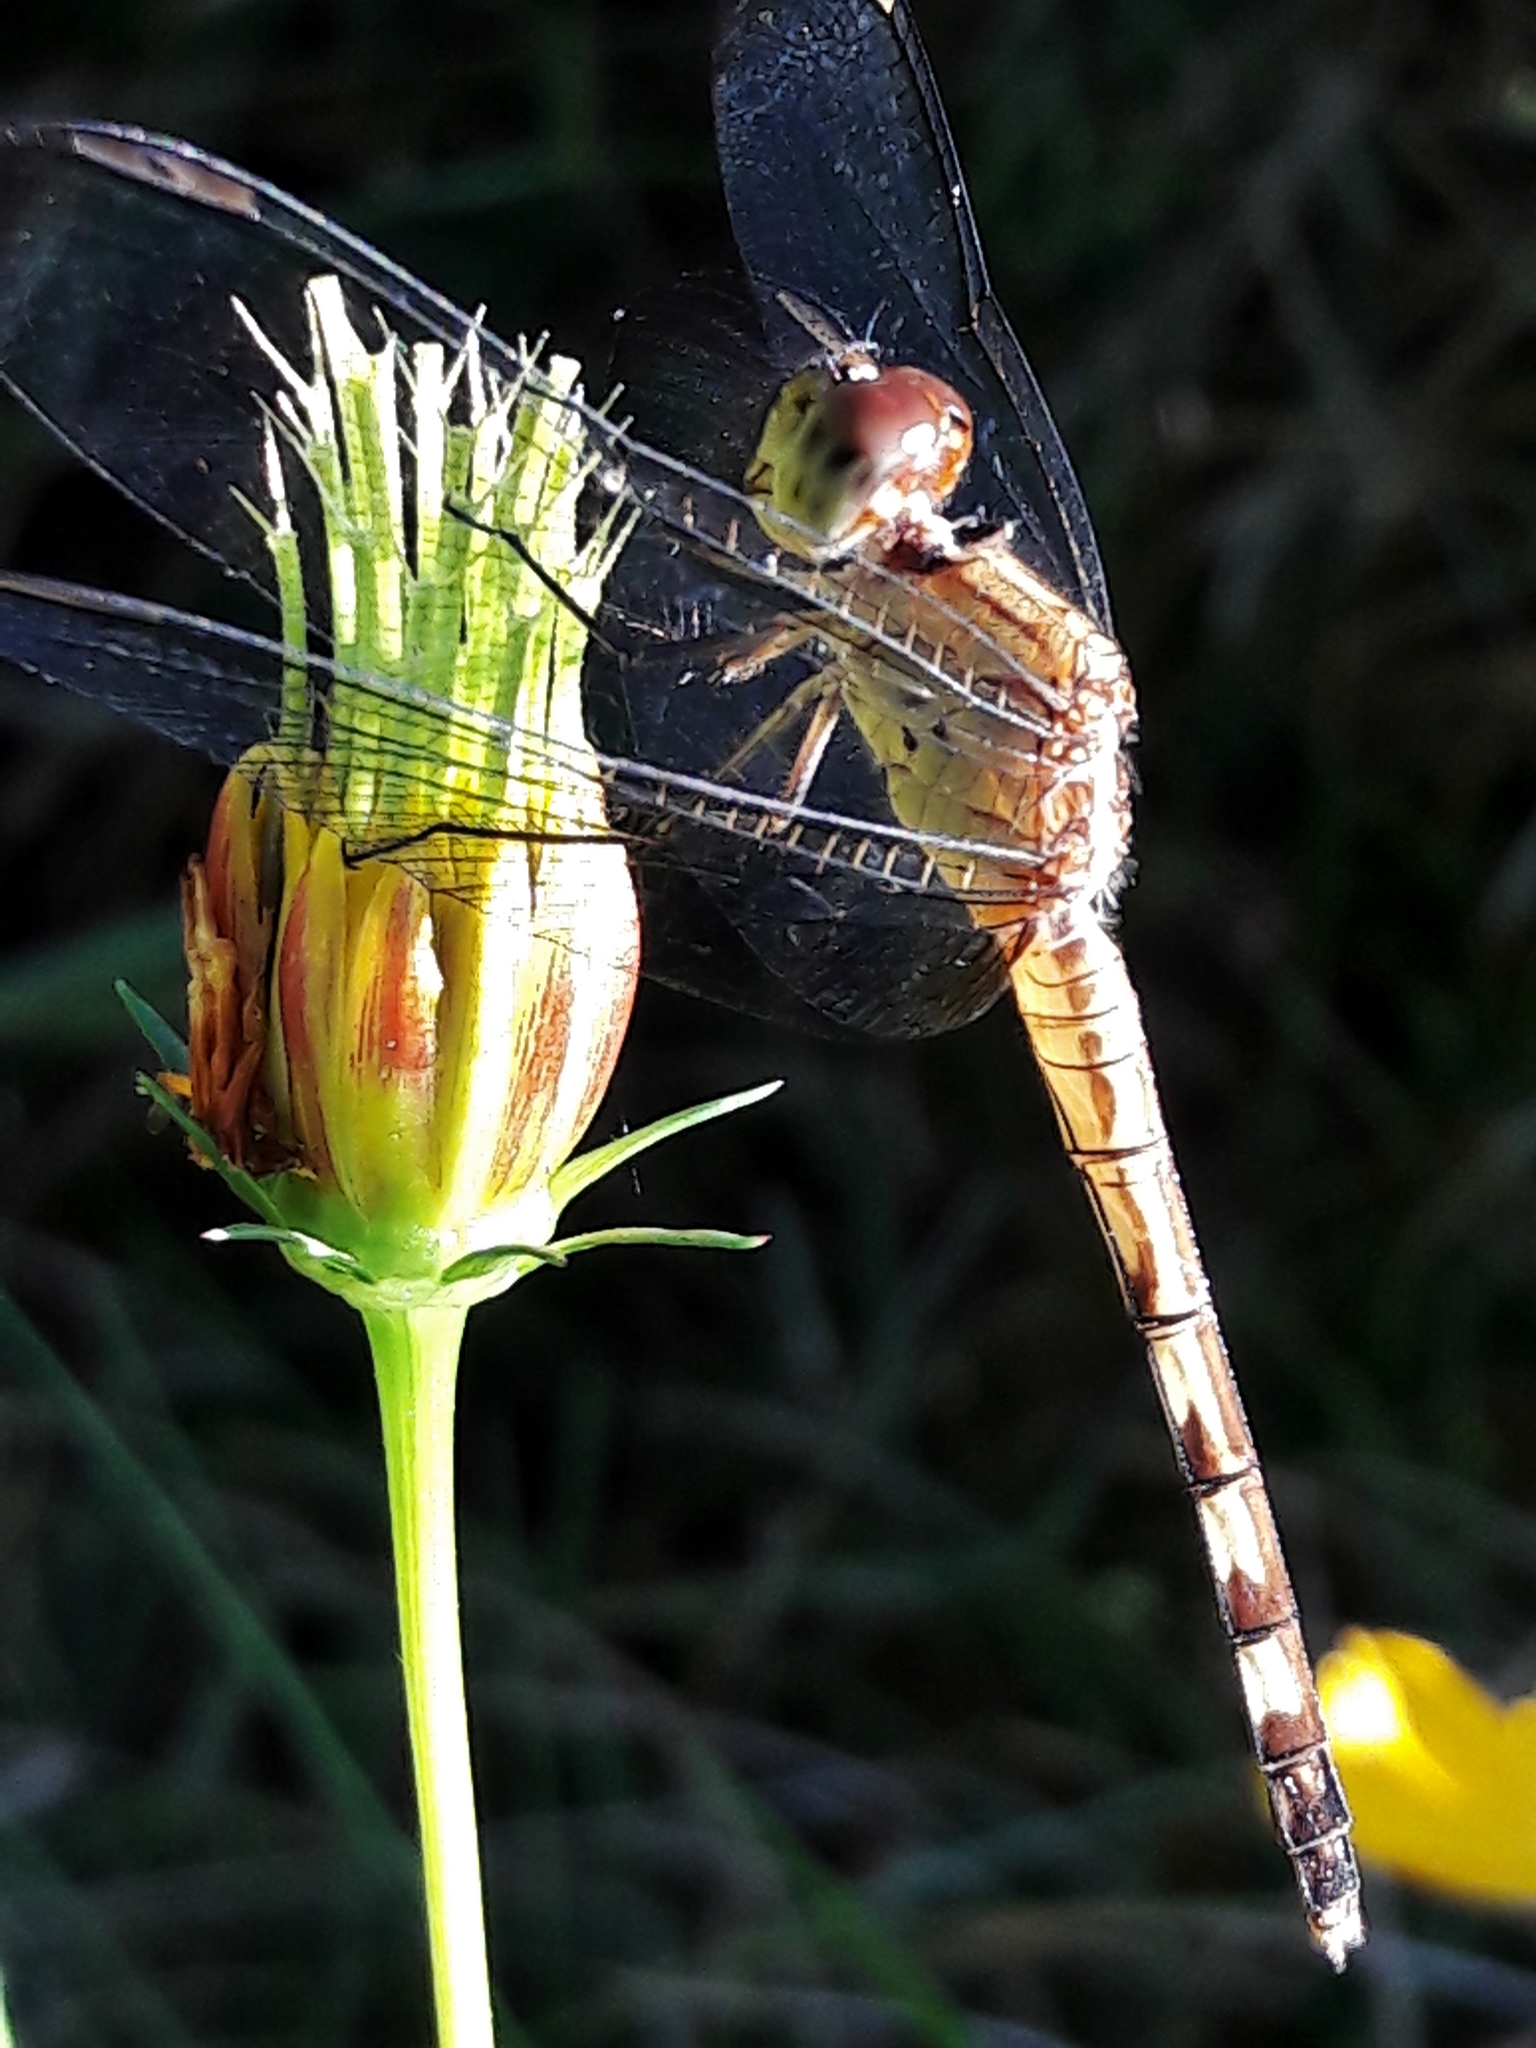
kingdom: Animalia
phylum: Arthropoda
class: Insecta
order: Odonata
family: Libellulidae
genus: Erythrodiplax
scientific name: Erythrodiplax umbrata
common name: Band-winged dragonlet
